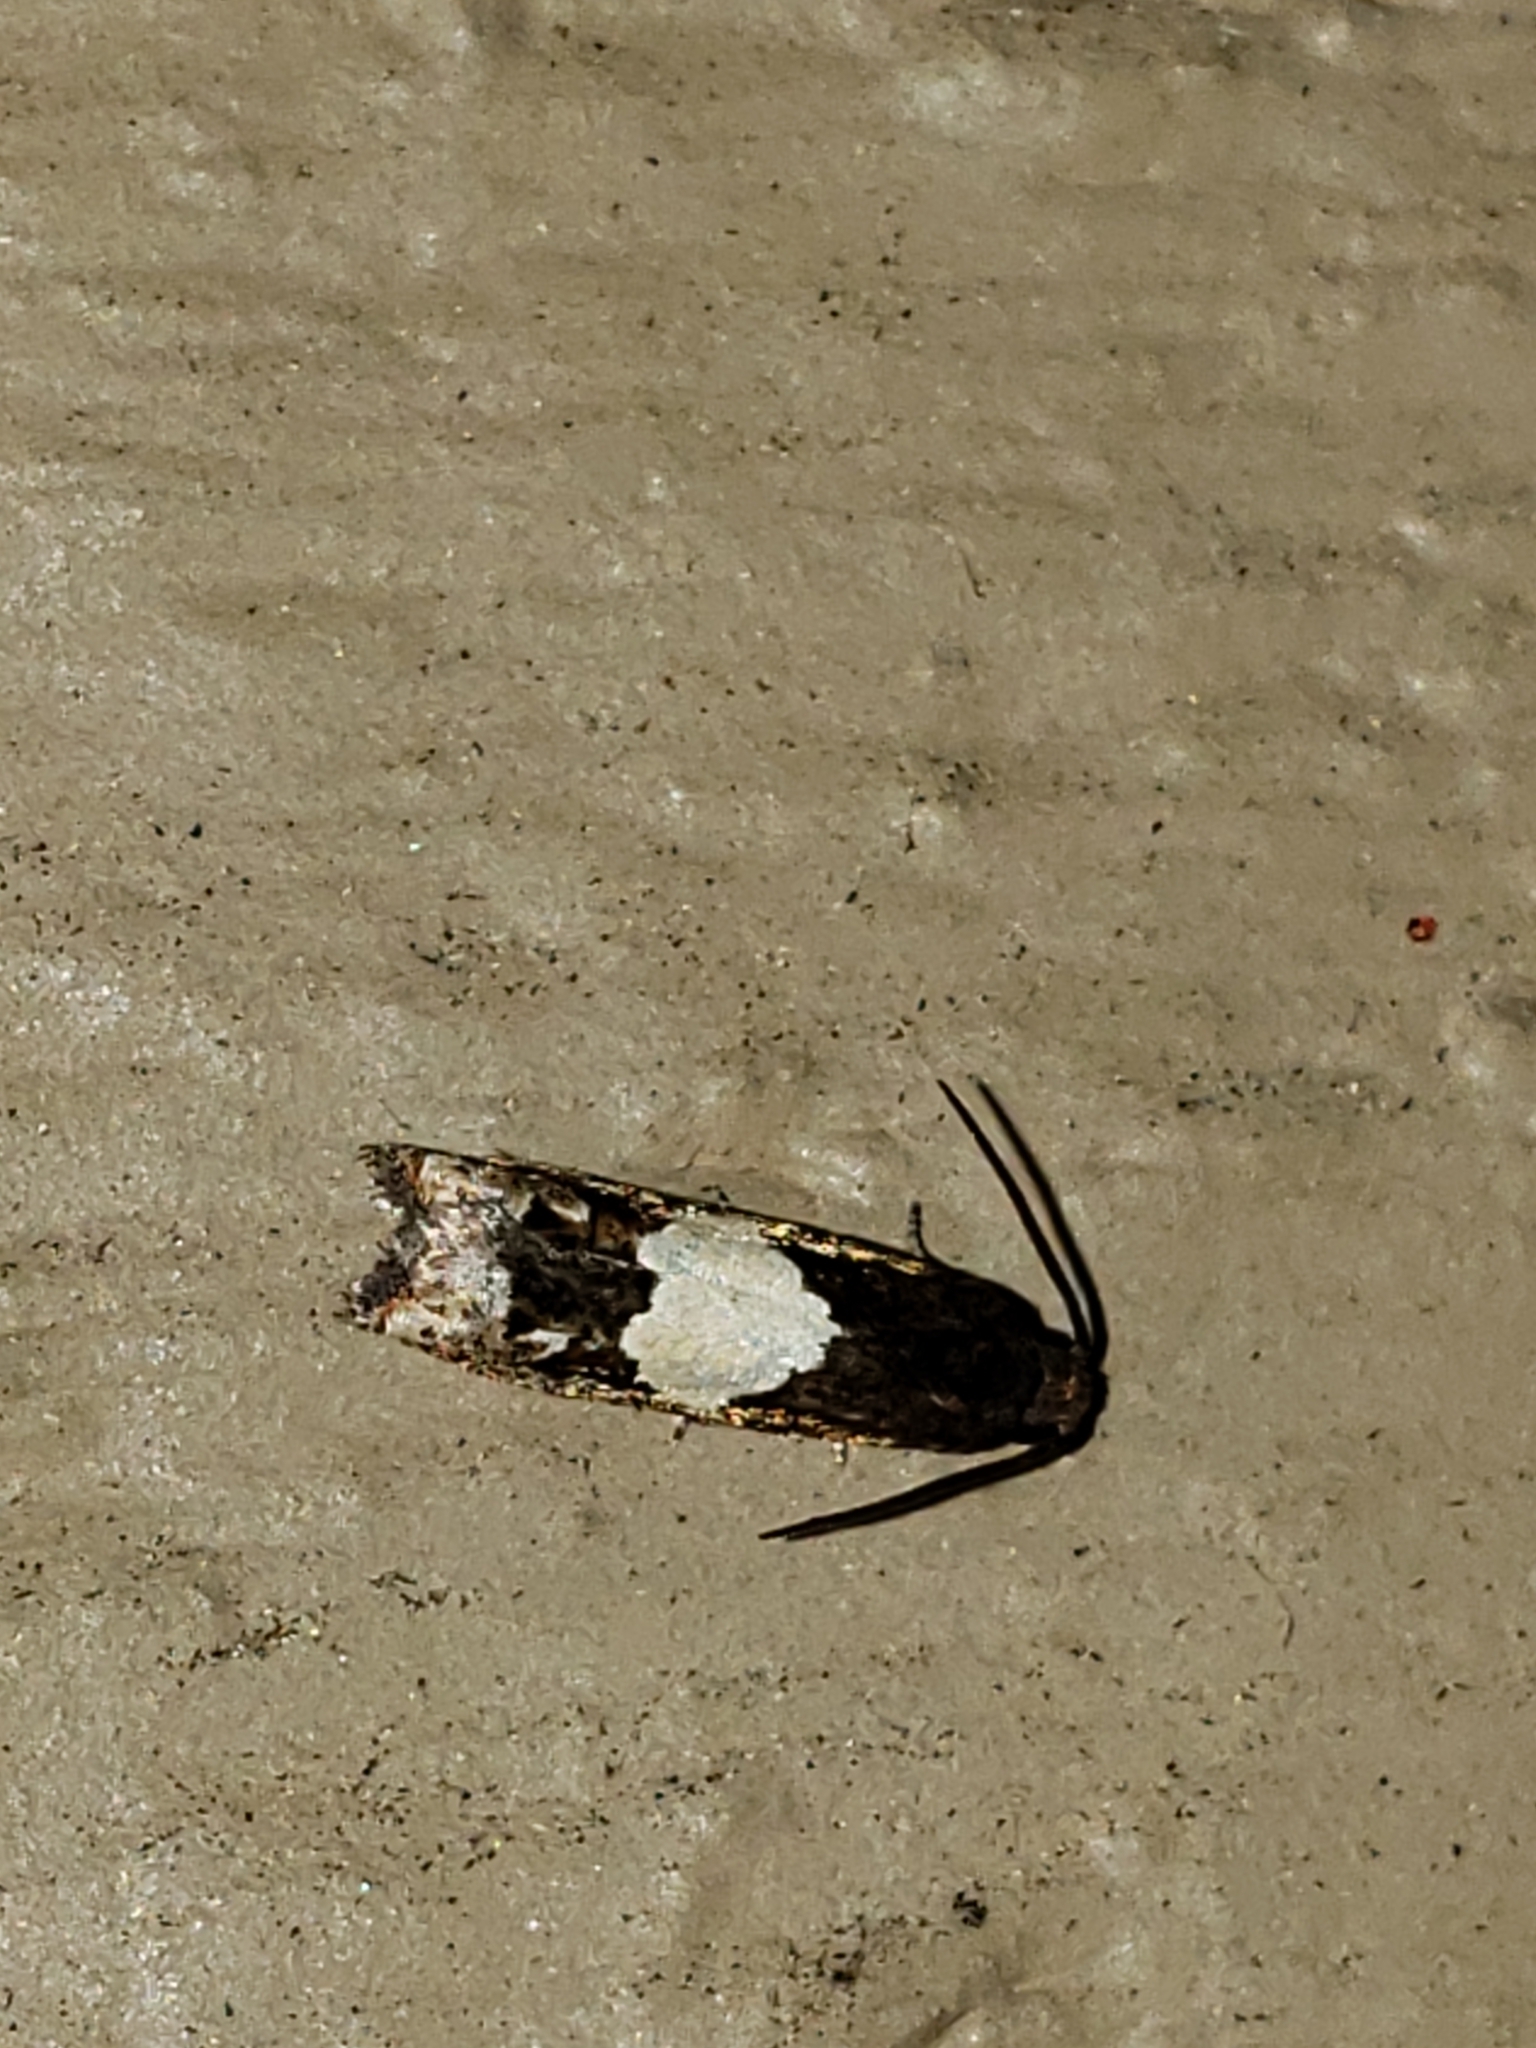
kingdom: Animalia
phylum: Arthropoda
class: Insecta
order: Lepidoptera
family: Tortricidae
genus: Epiblema
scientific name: Epiblema otiosana
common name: Bidens borer moth
